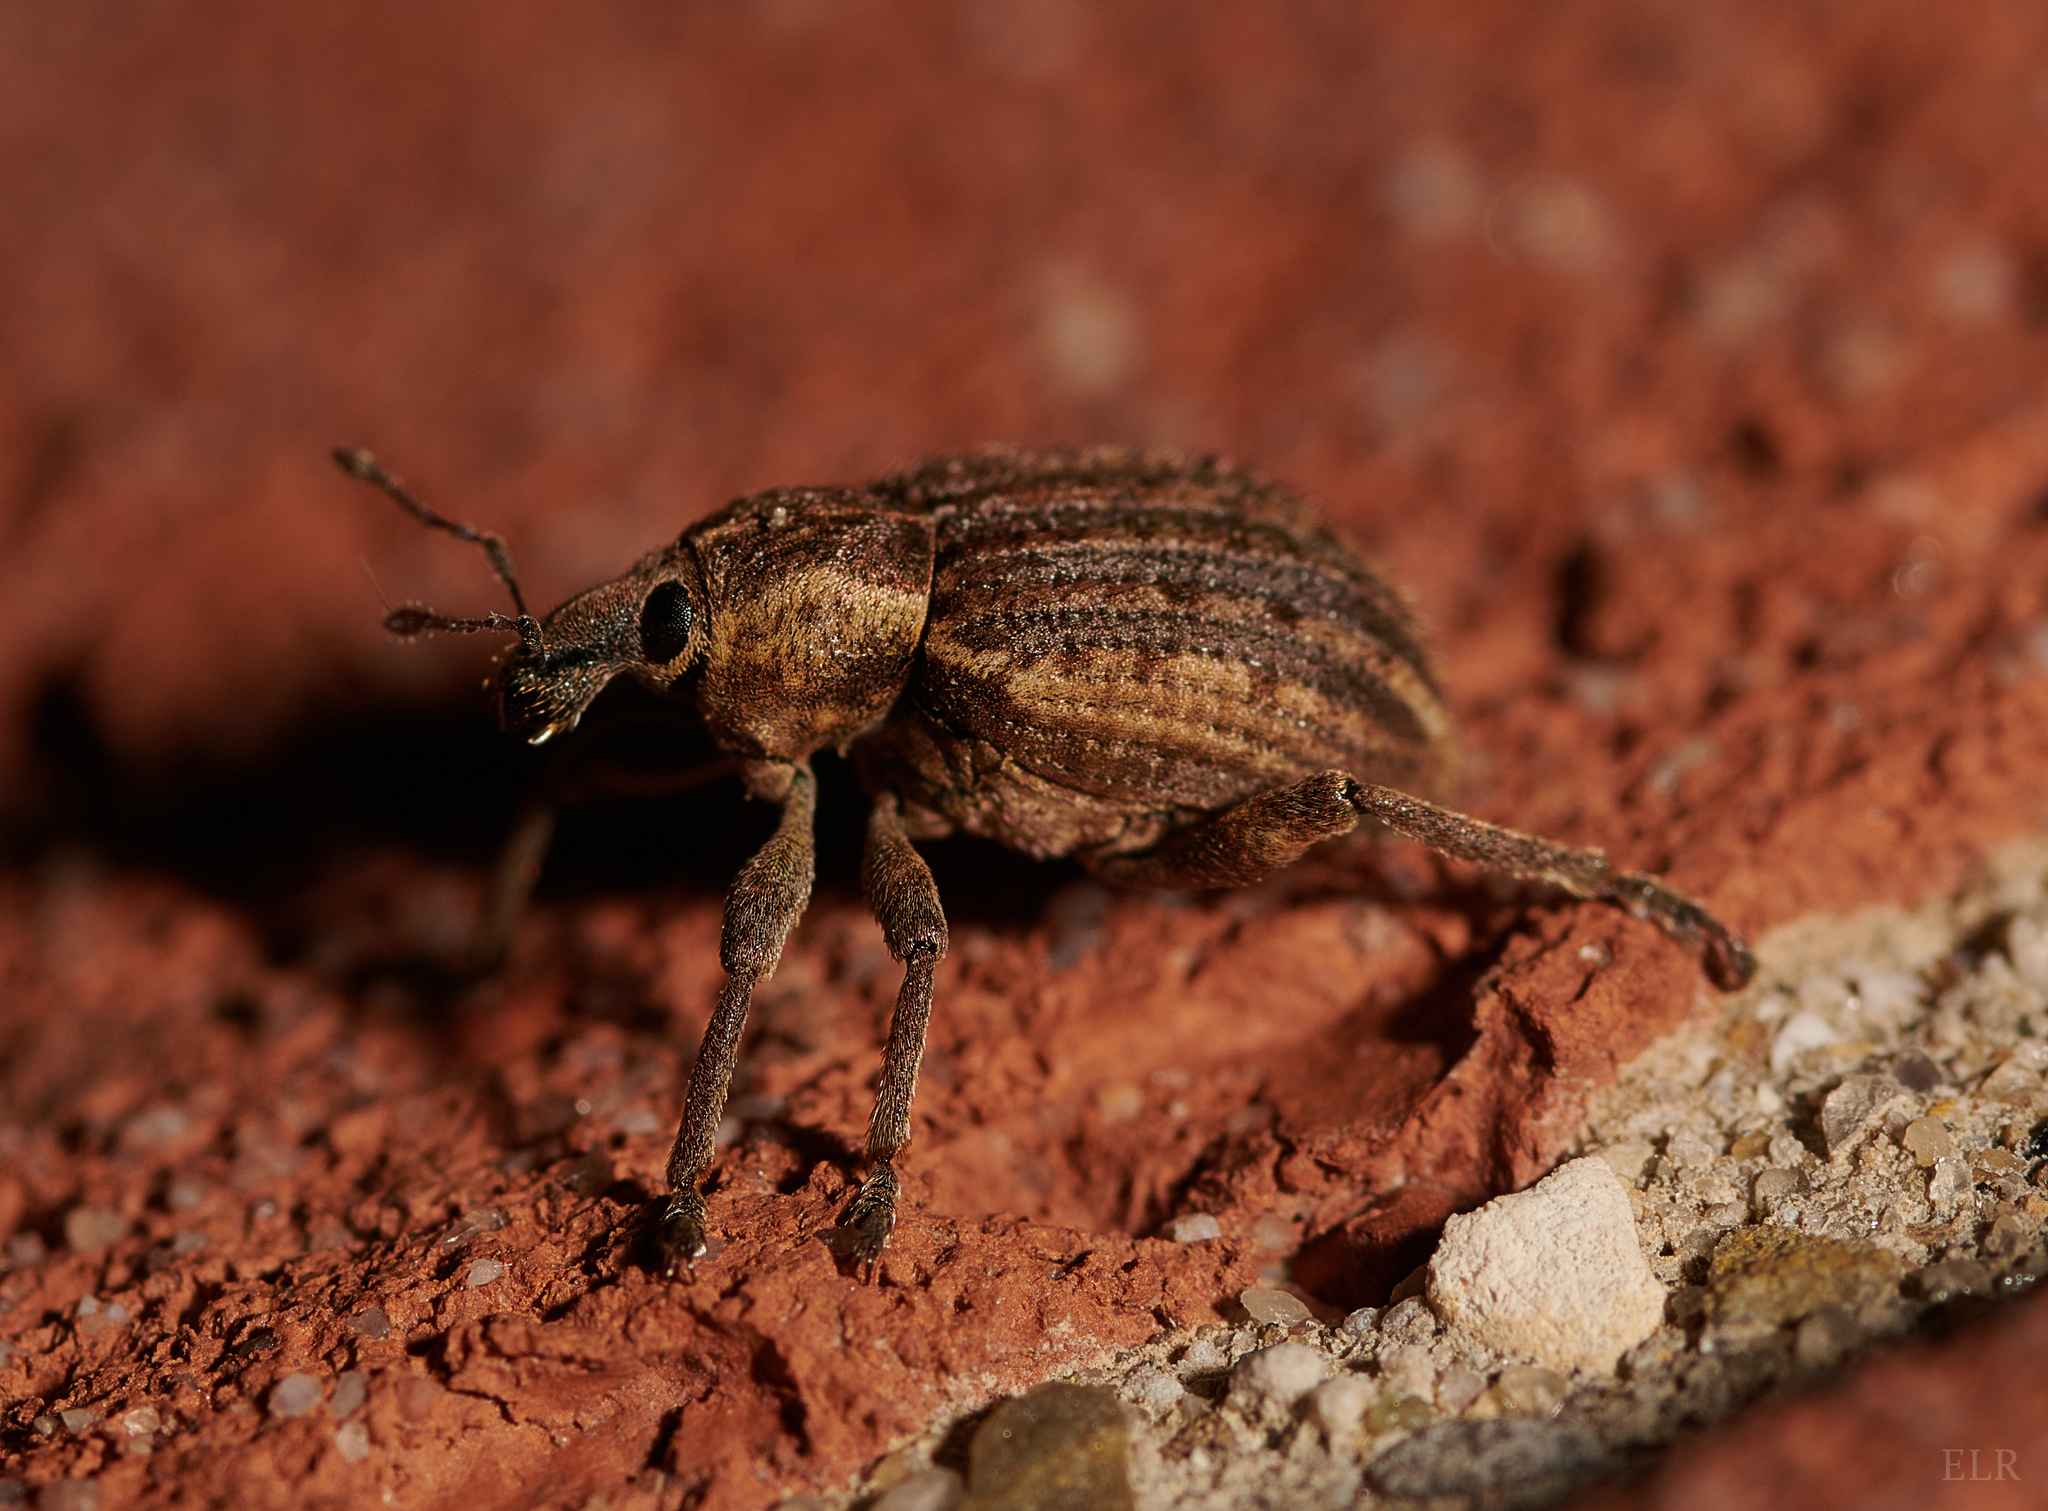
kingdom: Animalia
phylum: Arthropoda
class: Insecta
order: Coleoptera
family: Curculionidae
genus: Brachypera
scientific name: Brachypera zoilus
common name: Clover leaf weevil
